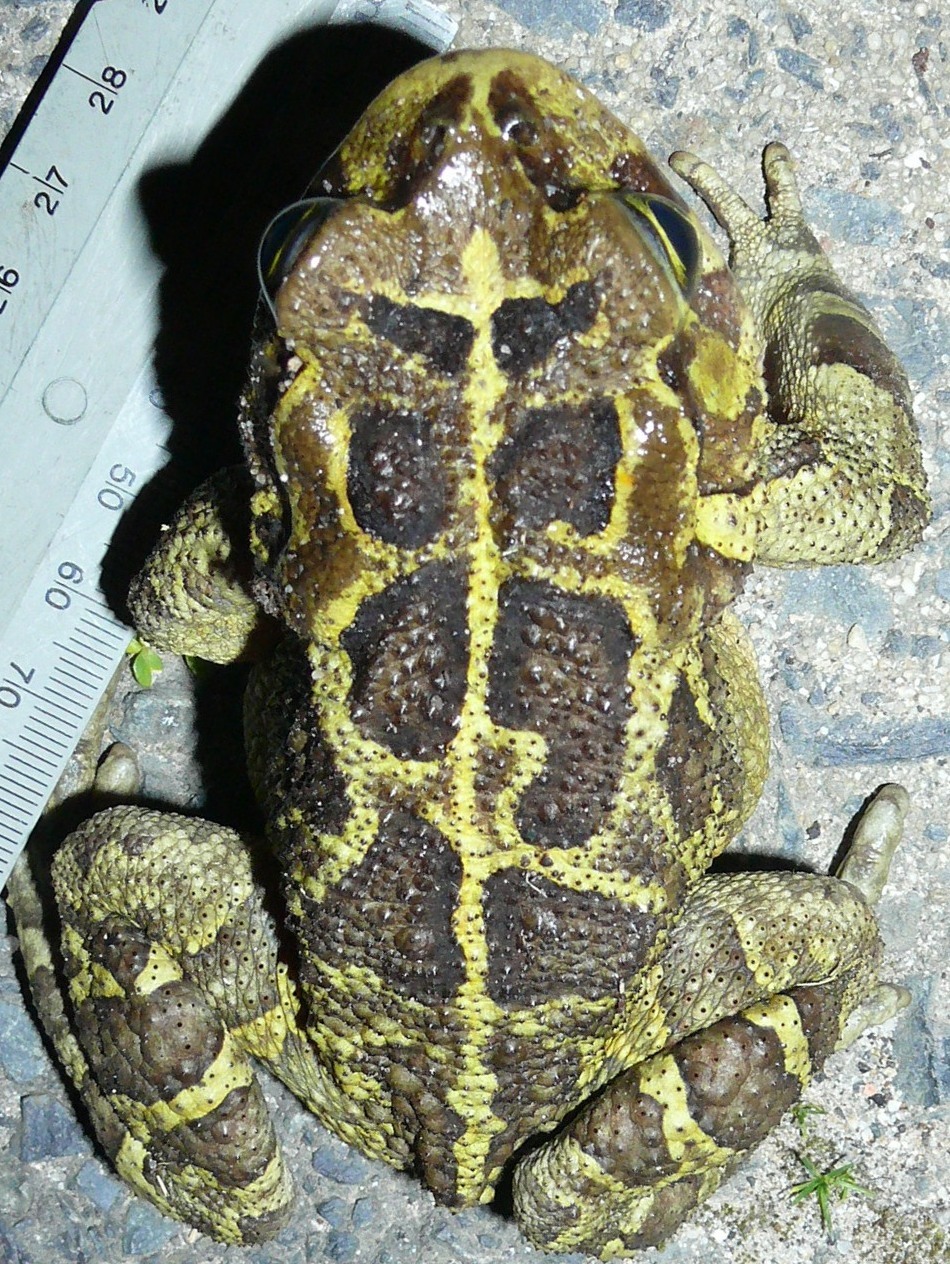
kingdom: Animalia
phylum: Chordata
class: Amphibia
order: Anura
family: Bufonidae
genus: Sclerophrys
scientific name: Sclerophrys pantherina
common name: Panther toad
